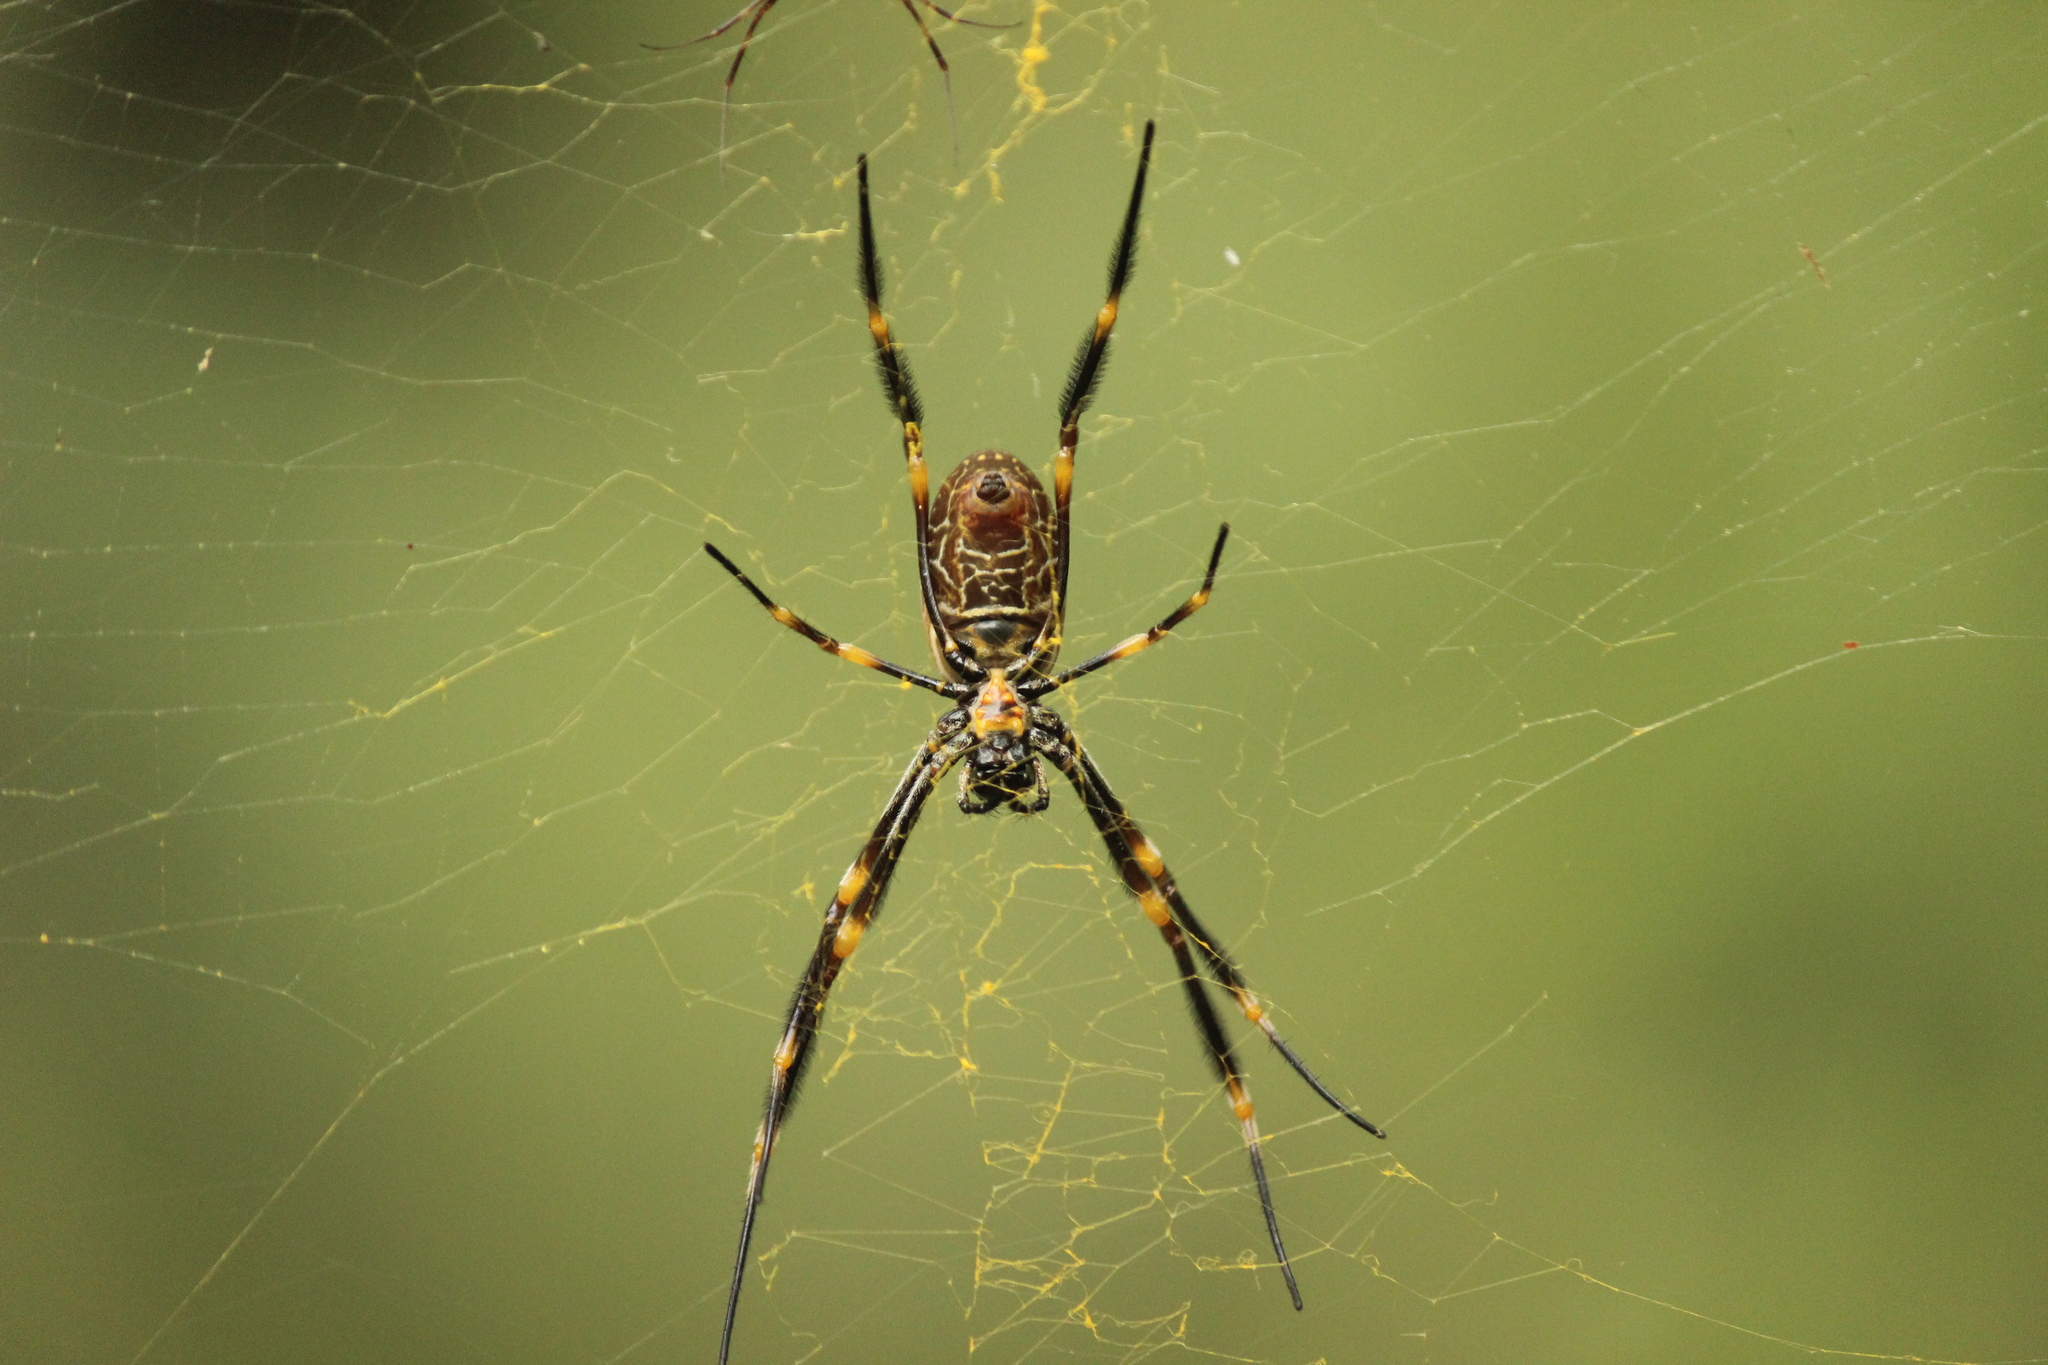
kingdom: Animalia
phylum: Arthropoda
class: Arachnida
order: Araneae
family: Araneidae
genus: Trichonephila
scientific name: Trichonephila plumipes
